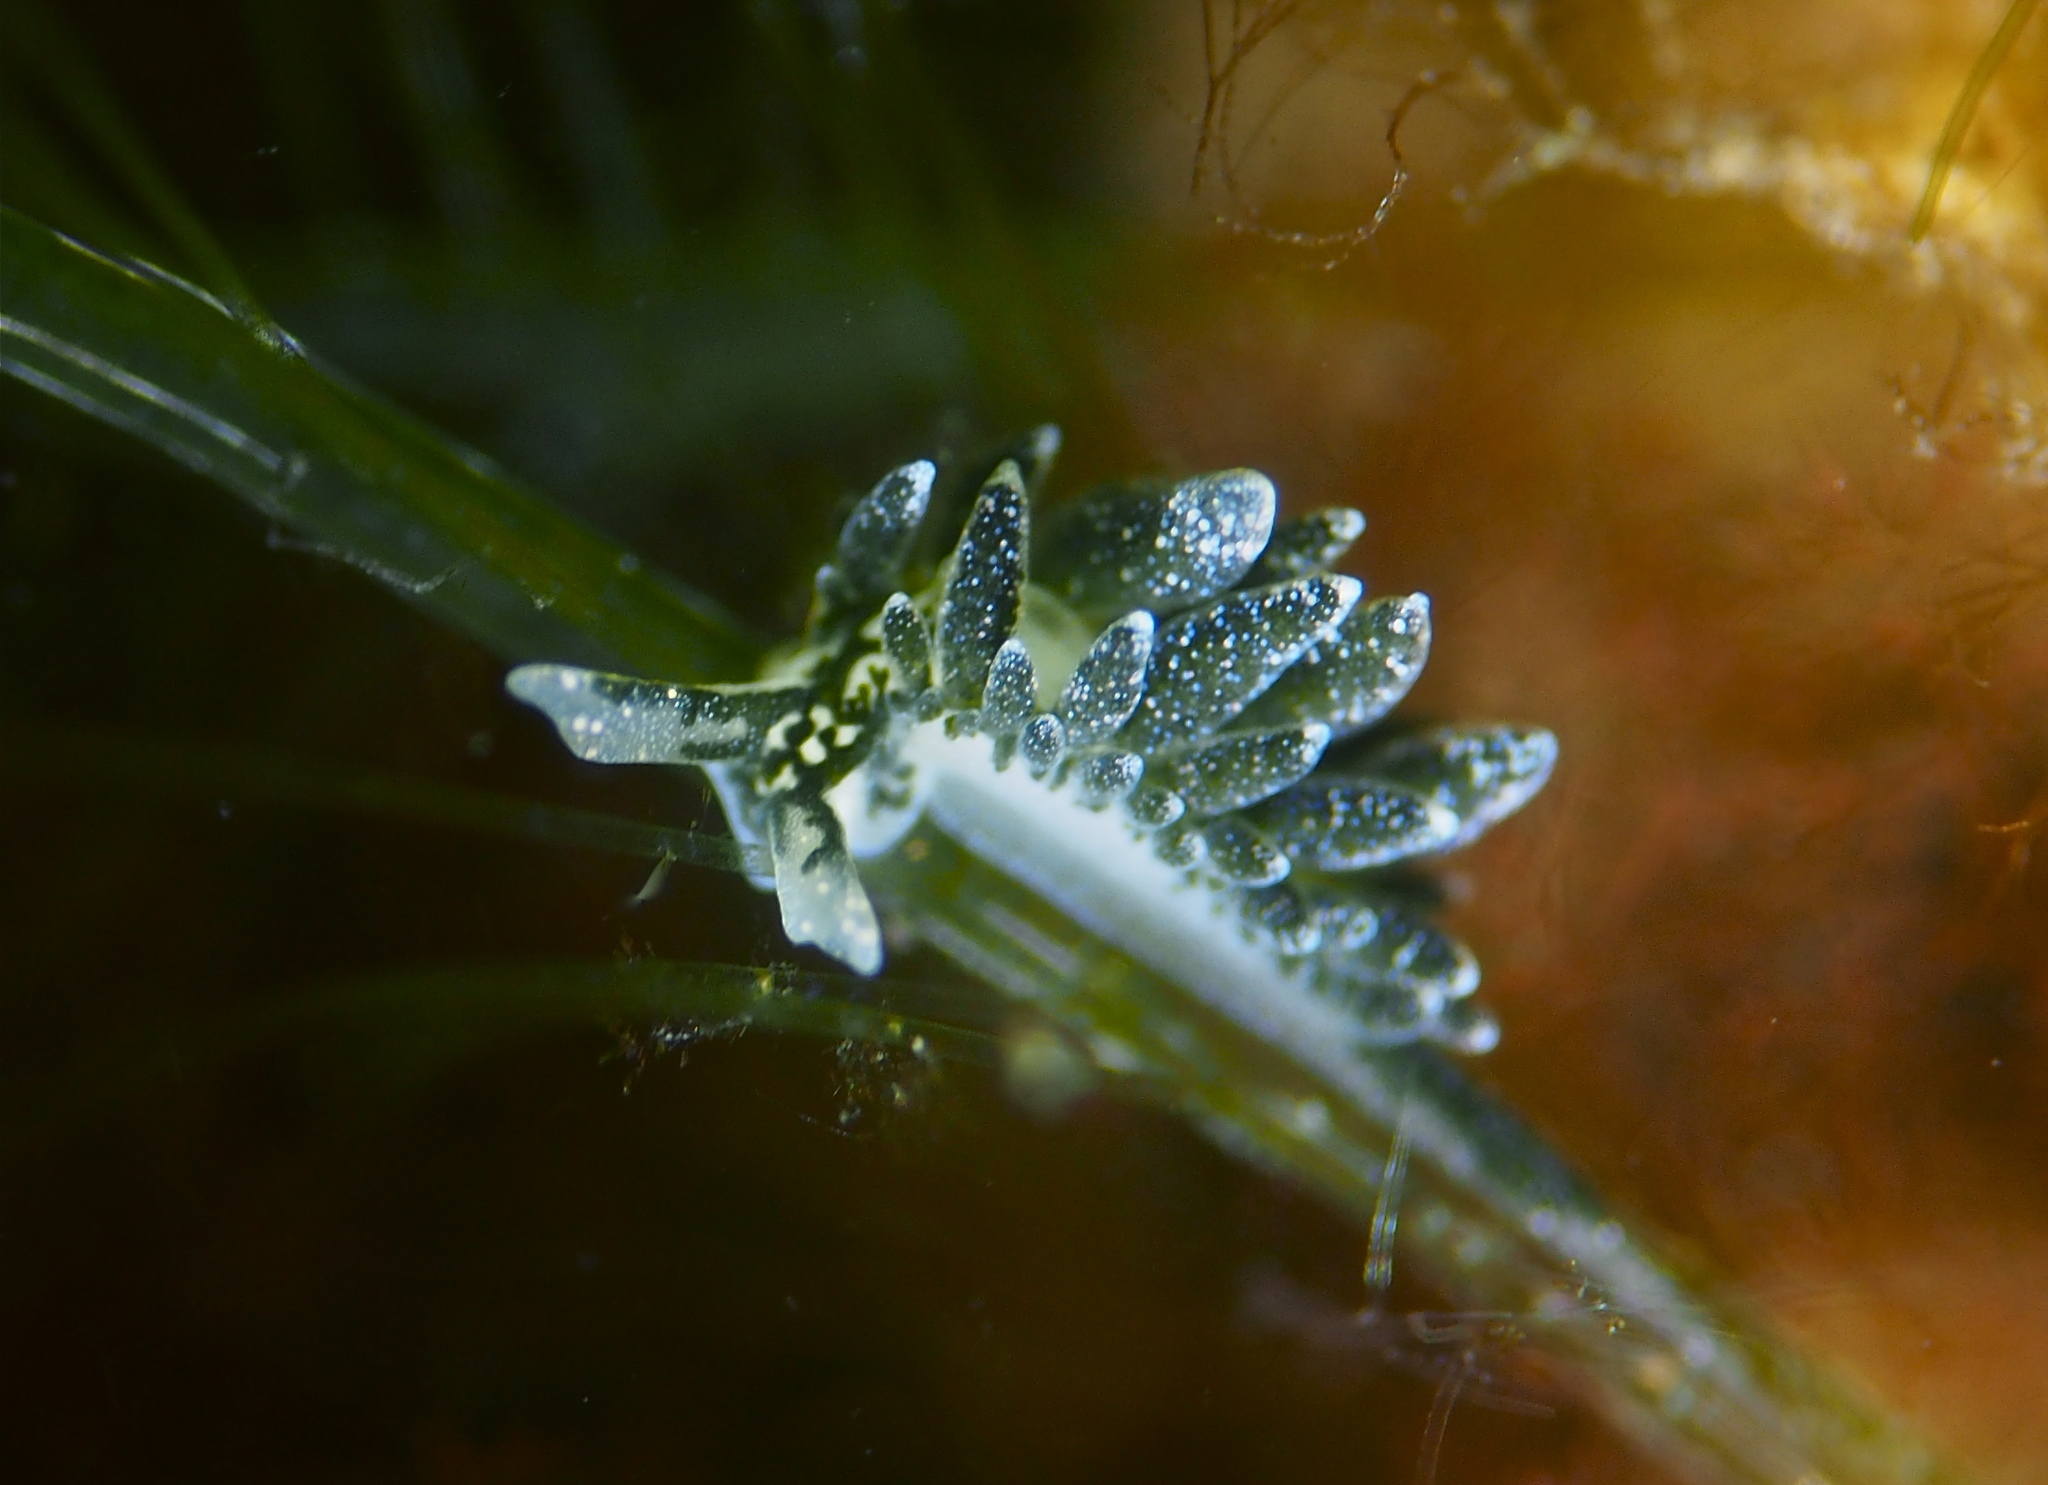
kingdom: Animalia
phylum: Mollusca
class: Gastropoda
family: Limapontiidae
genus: Placida
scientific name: Placida dendritica
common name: Dendritic nudibranch
